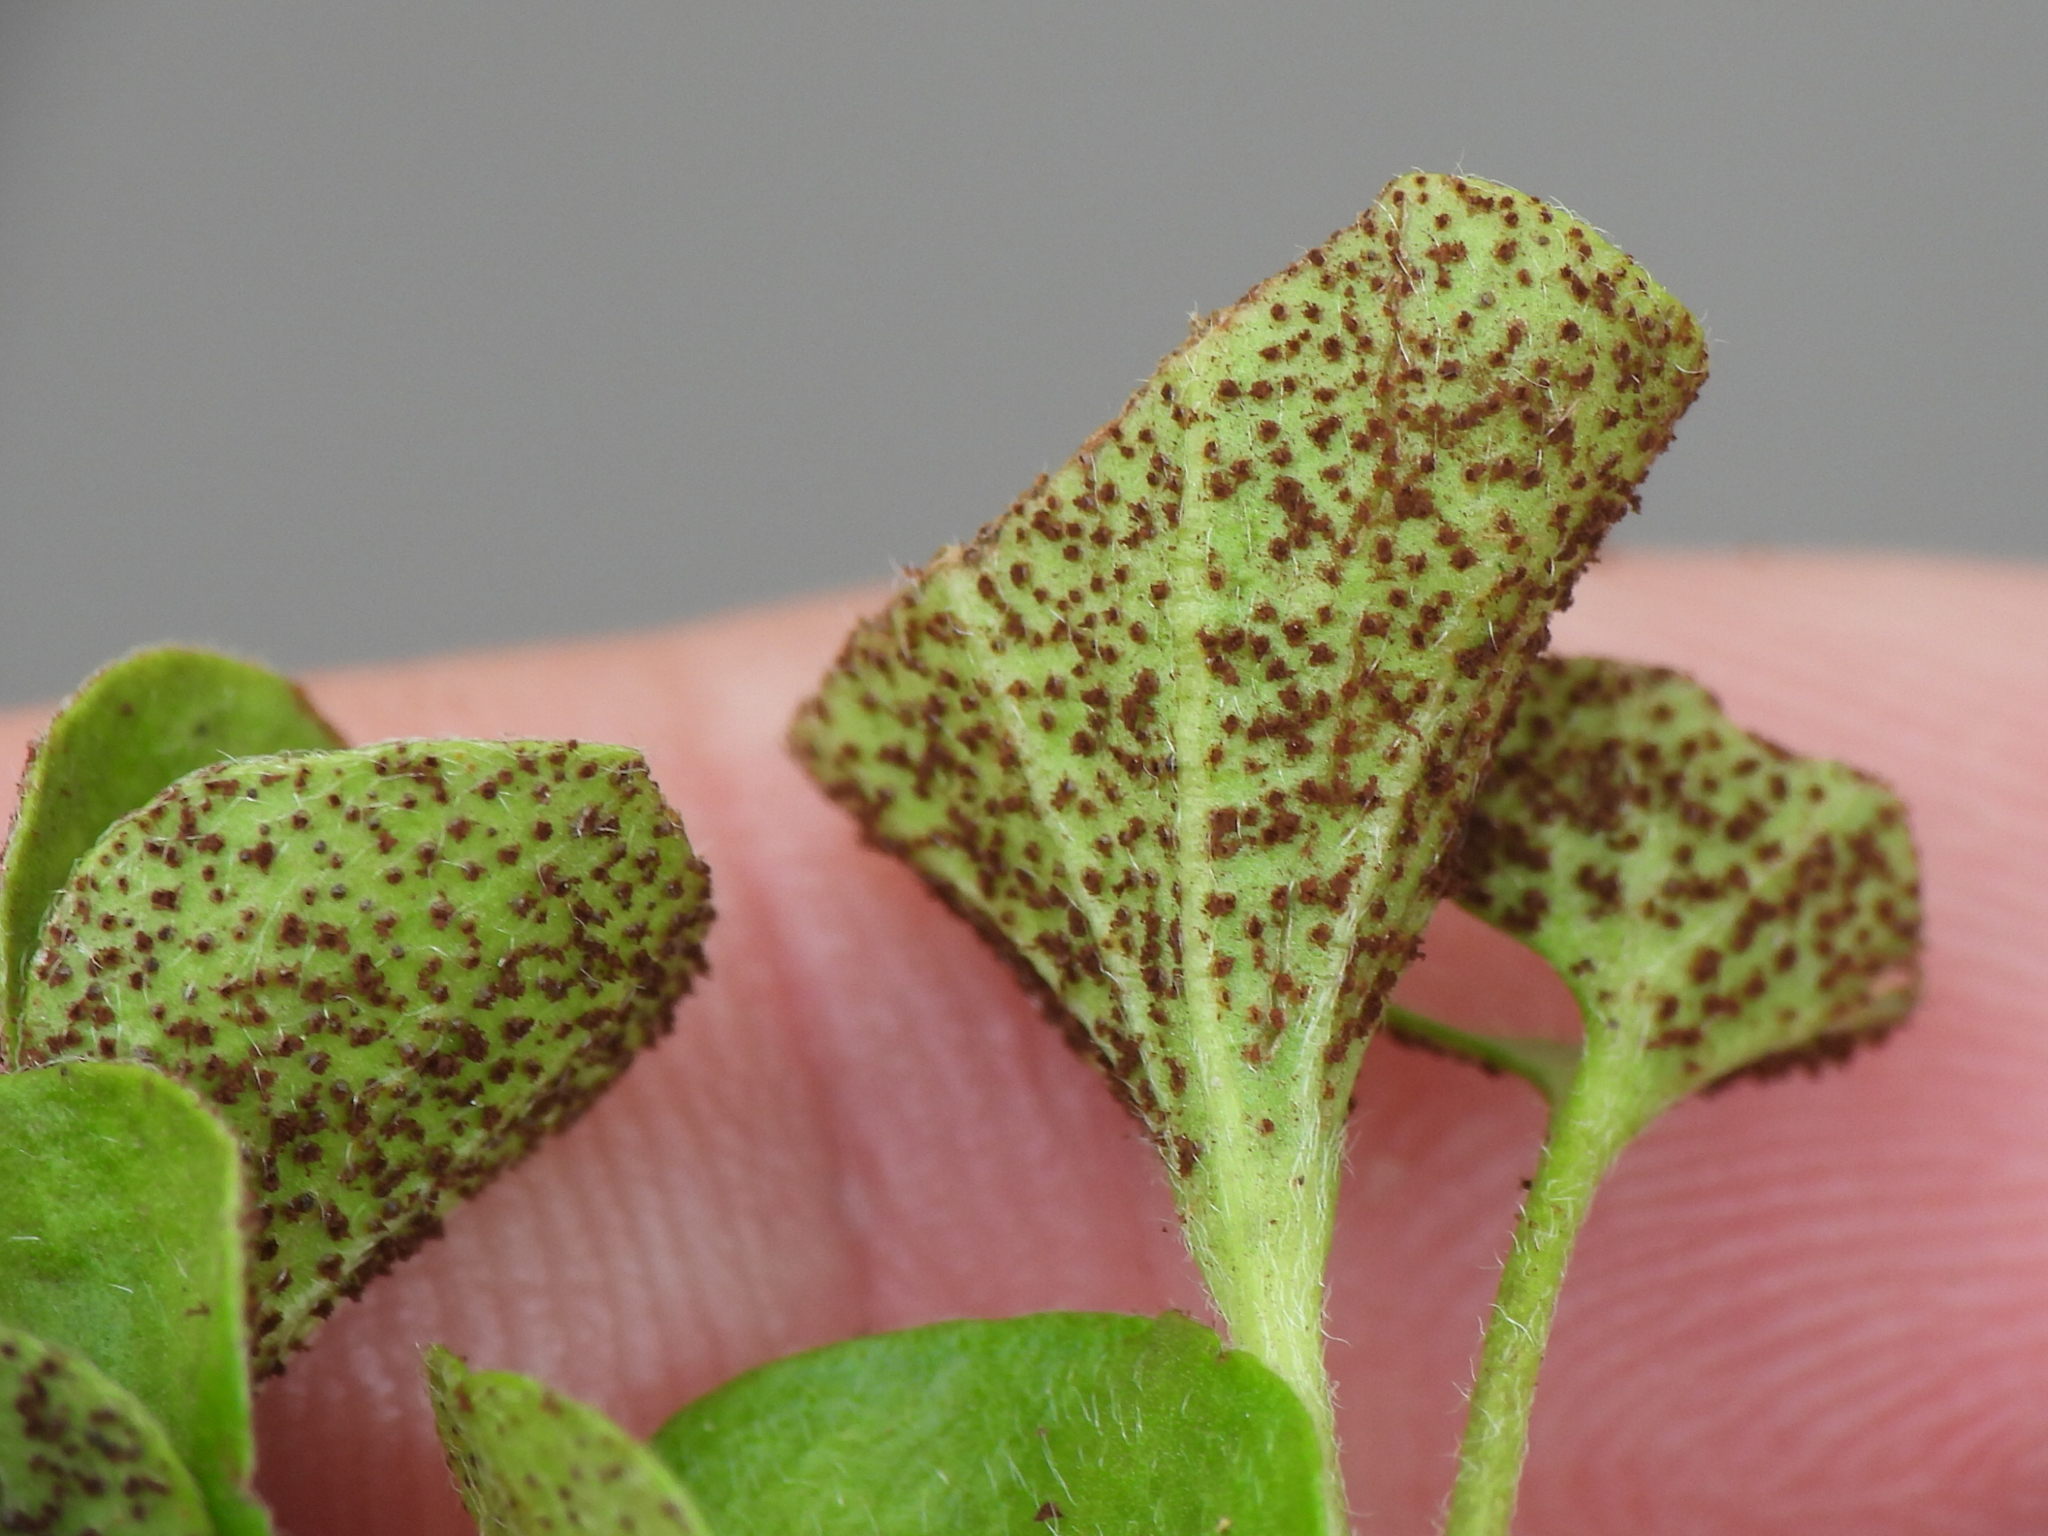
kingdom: Fungi
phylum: Basidiomycota
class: Pucciniomycetes
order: Pucciniales
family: Pucciniaceae
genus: Puccinia
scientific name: Puccinia dichondrae
